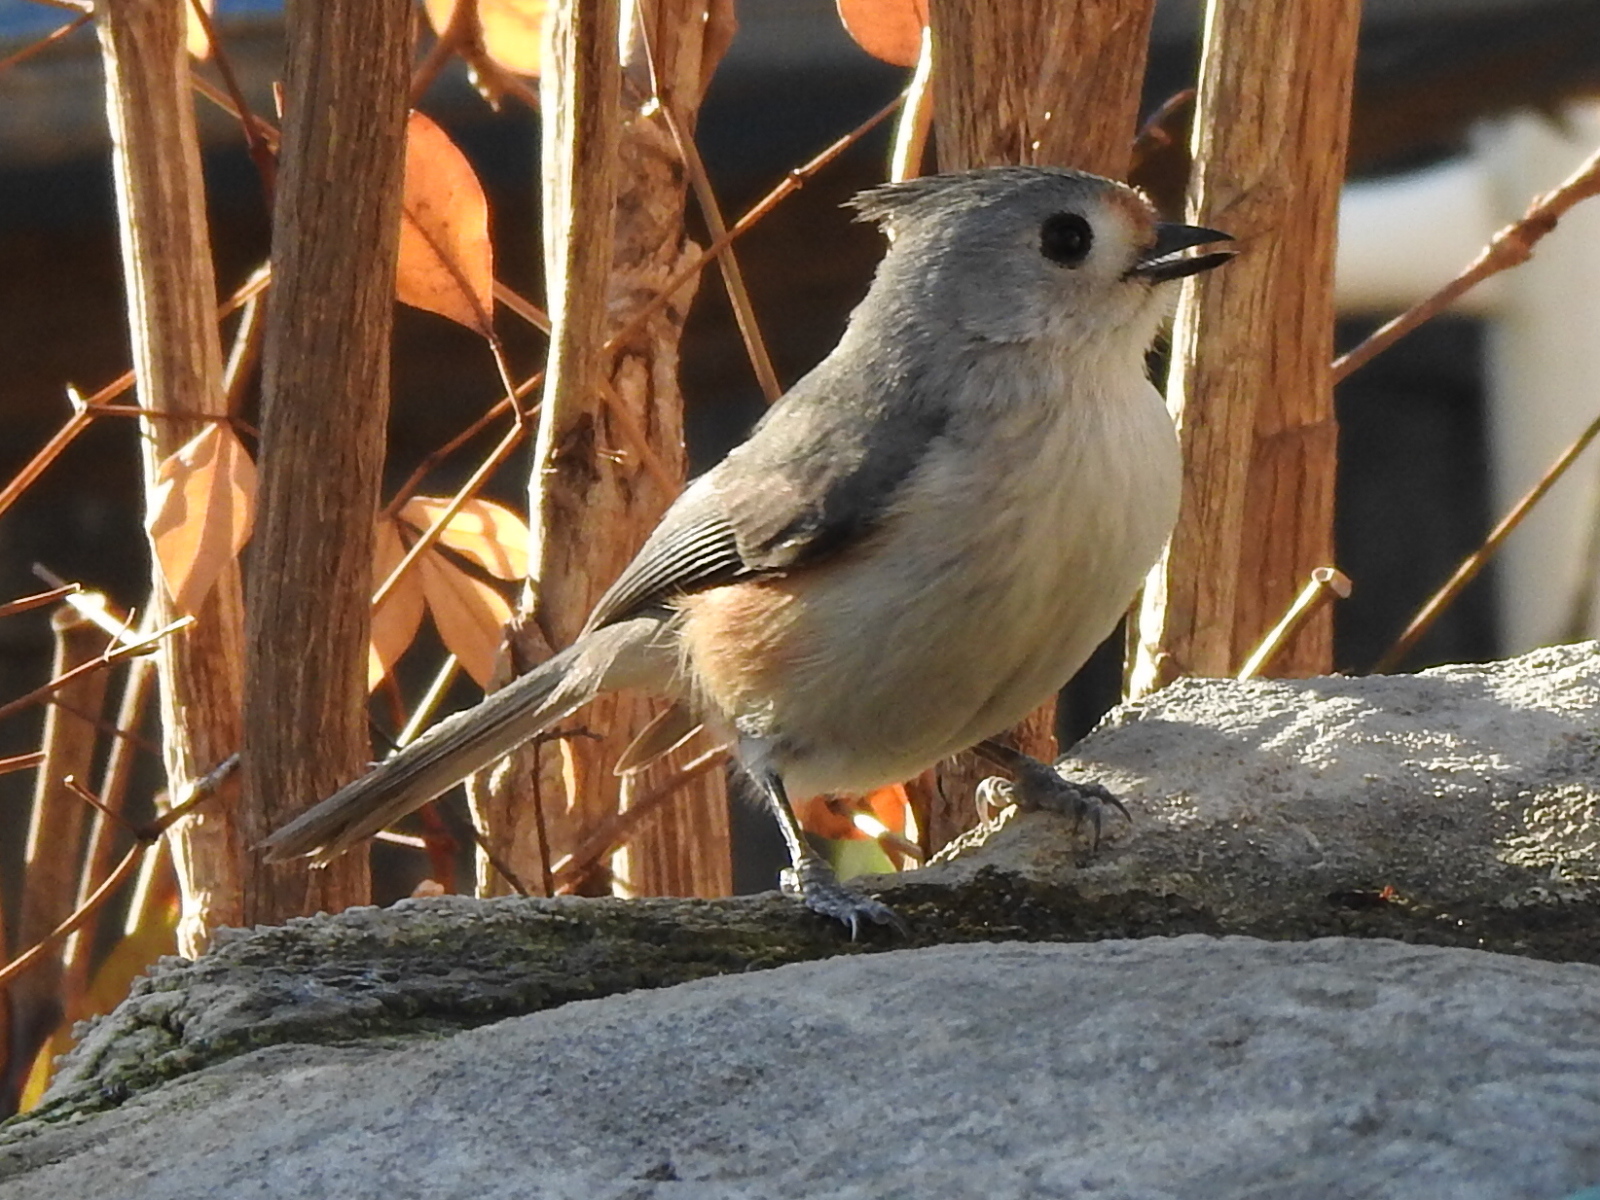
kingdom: Animalia
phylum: Chordata
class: Aves
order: Passeriformes
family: Paridae
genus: Baeolophus
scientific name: Baeolophus
